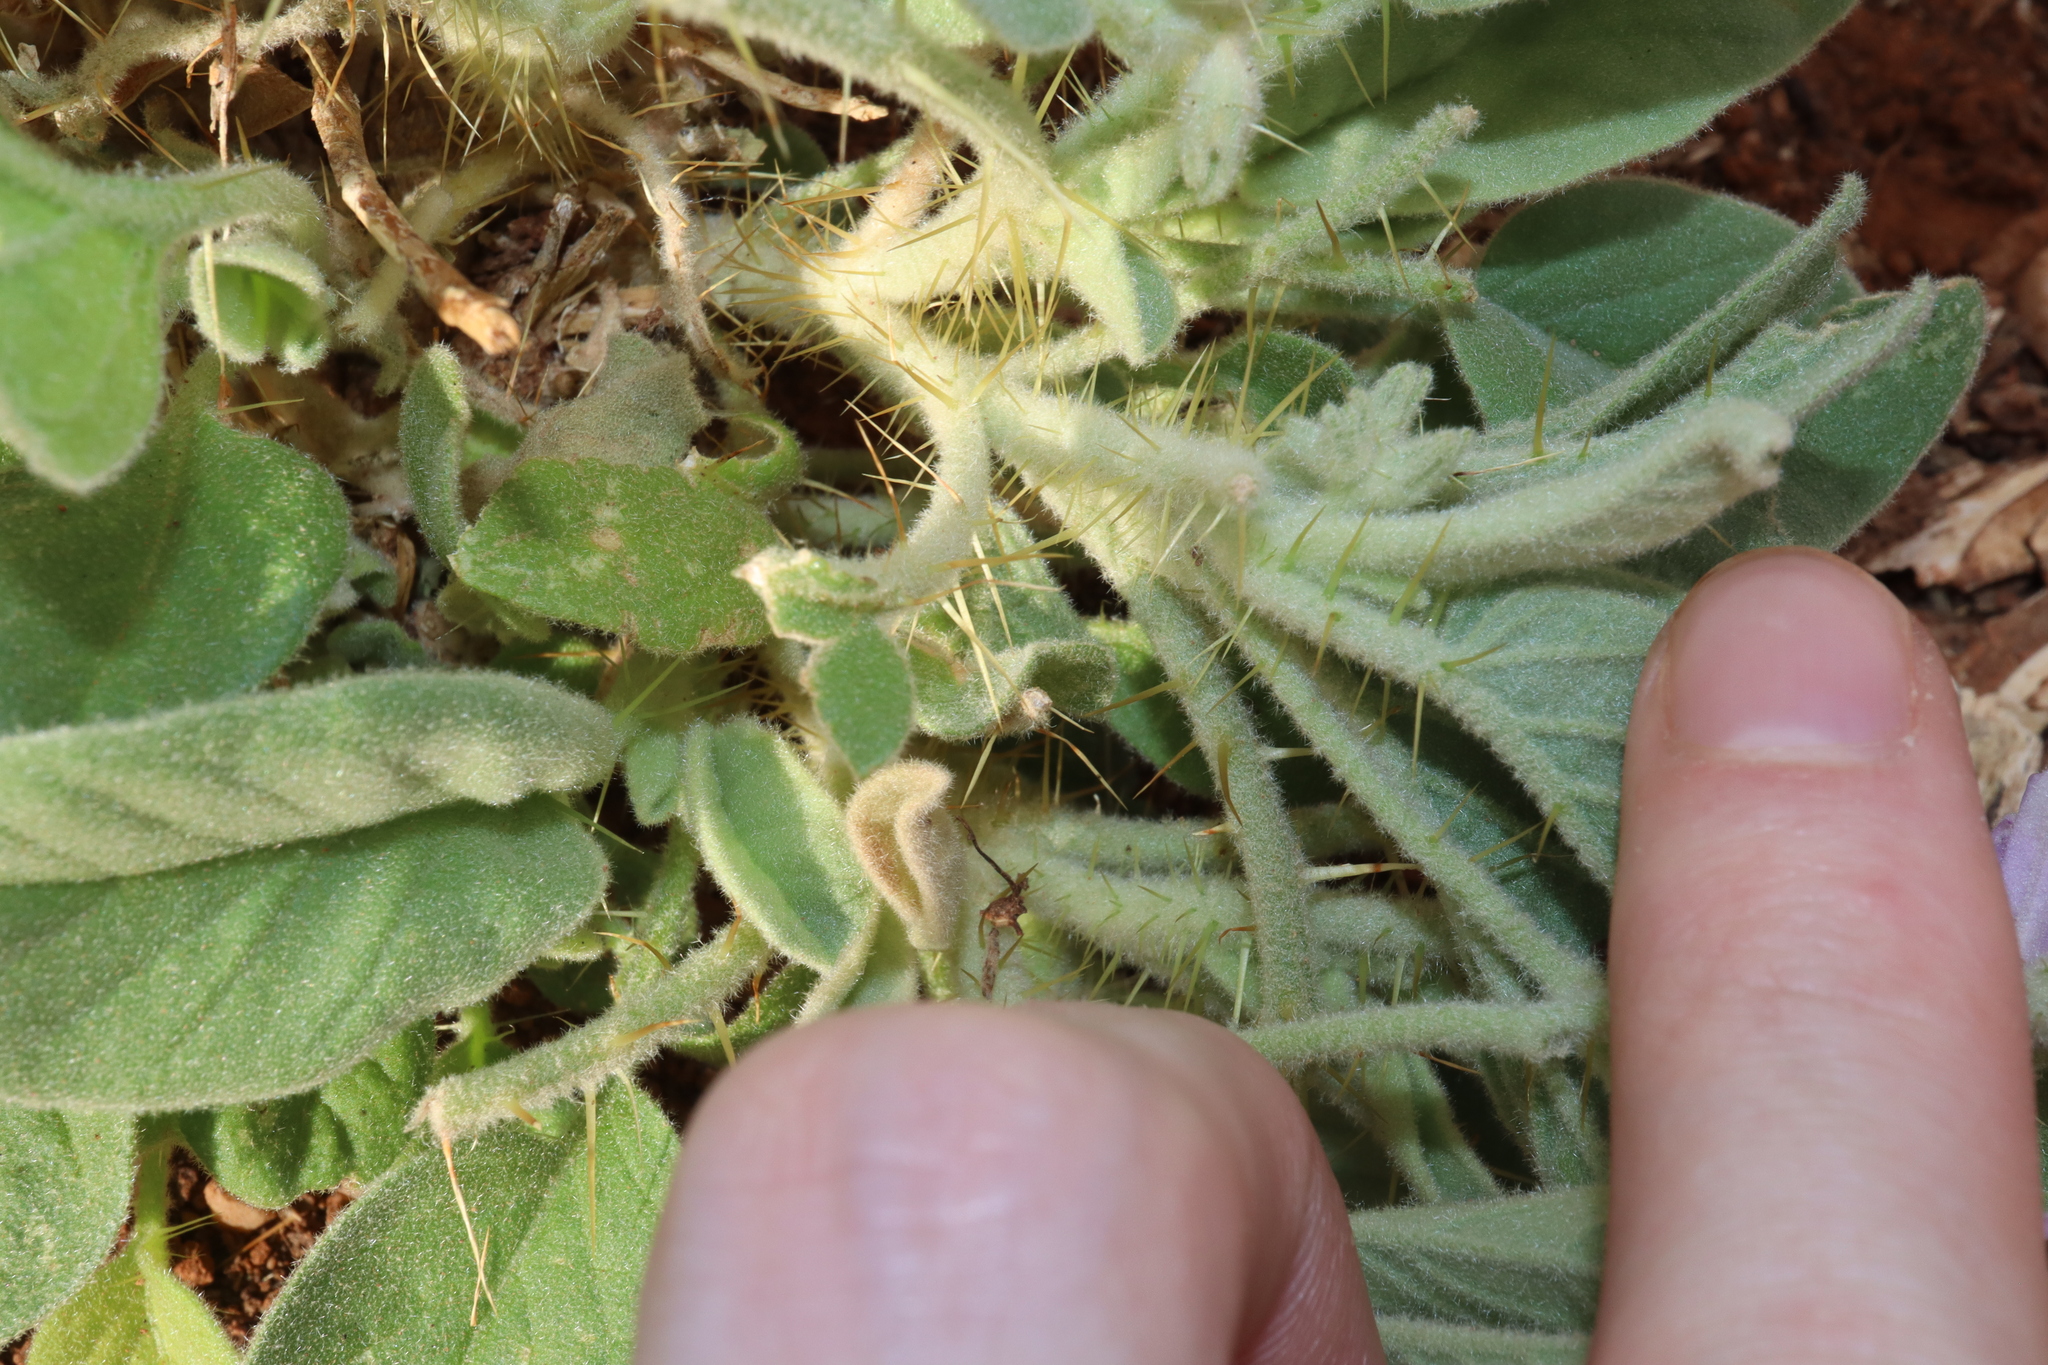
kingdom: Plantae
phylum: Tracheophyta
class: Magnoliopsida
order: Solanales
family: Solanaceae
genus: Solanum
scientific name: Solanum cleistogamum
